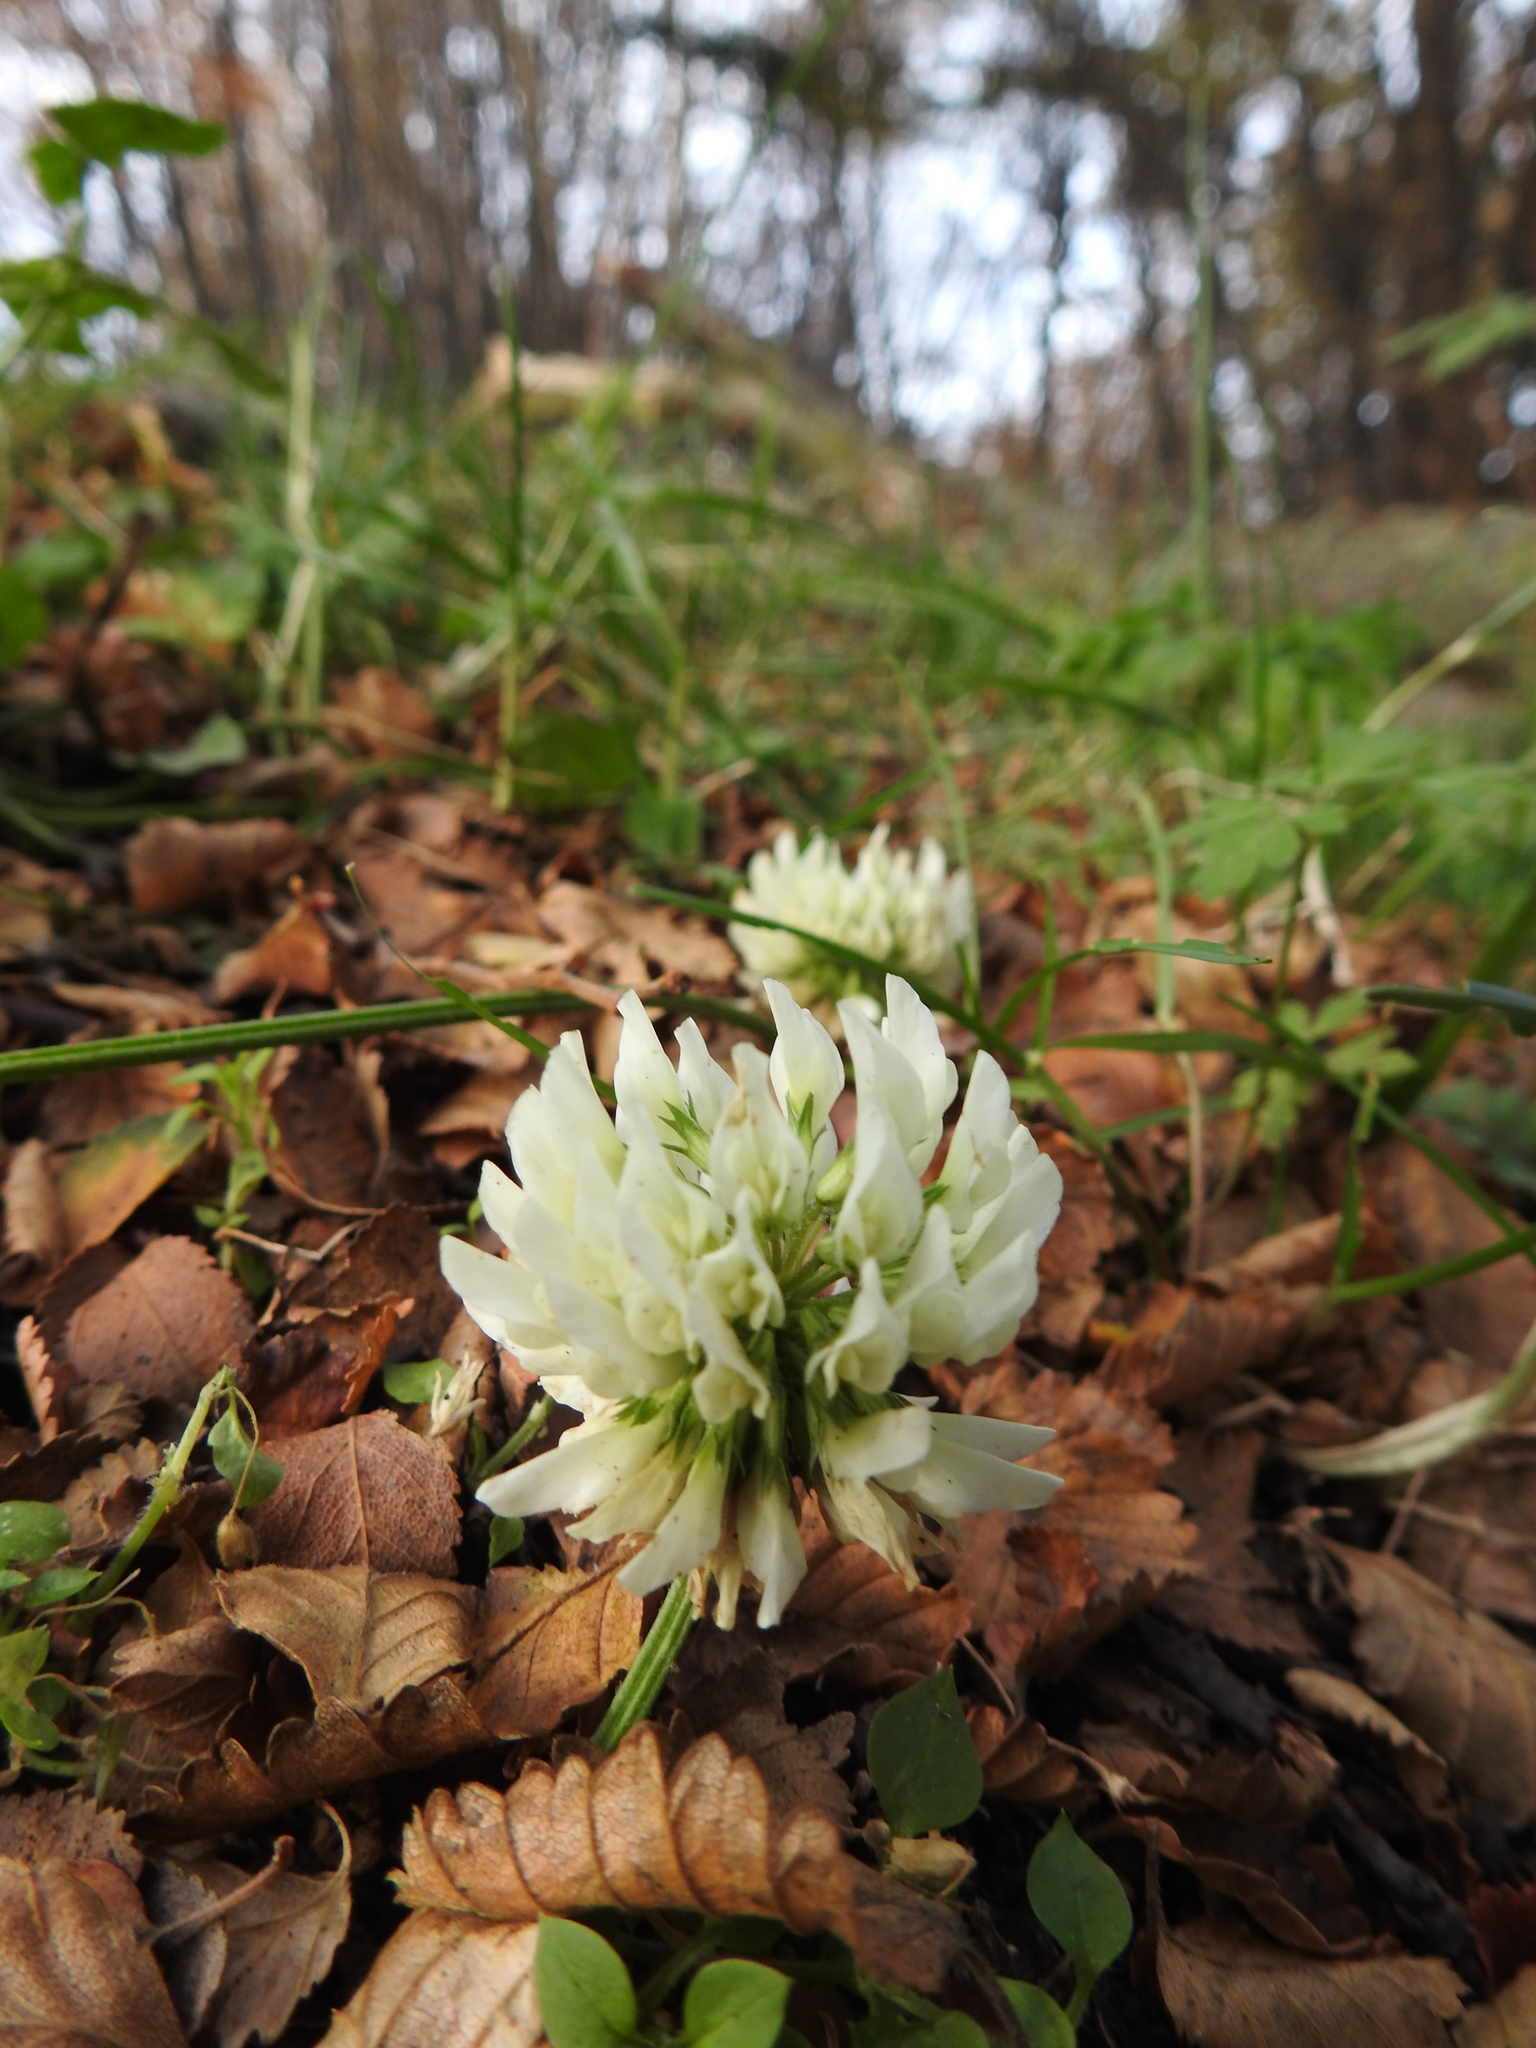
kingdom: Plantae
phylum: Tracheophyta
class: Magnoliopsida
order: Fabales
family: Fabaceae
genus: Trifolium
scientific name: Trifolium repens
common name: White clover
